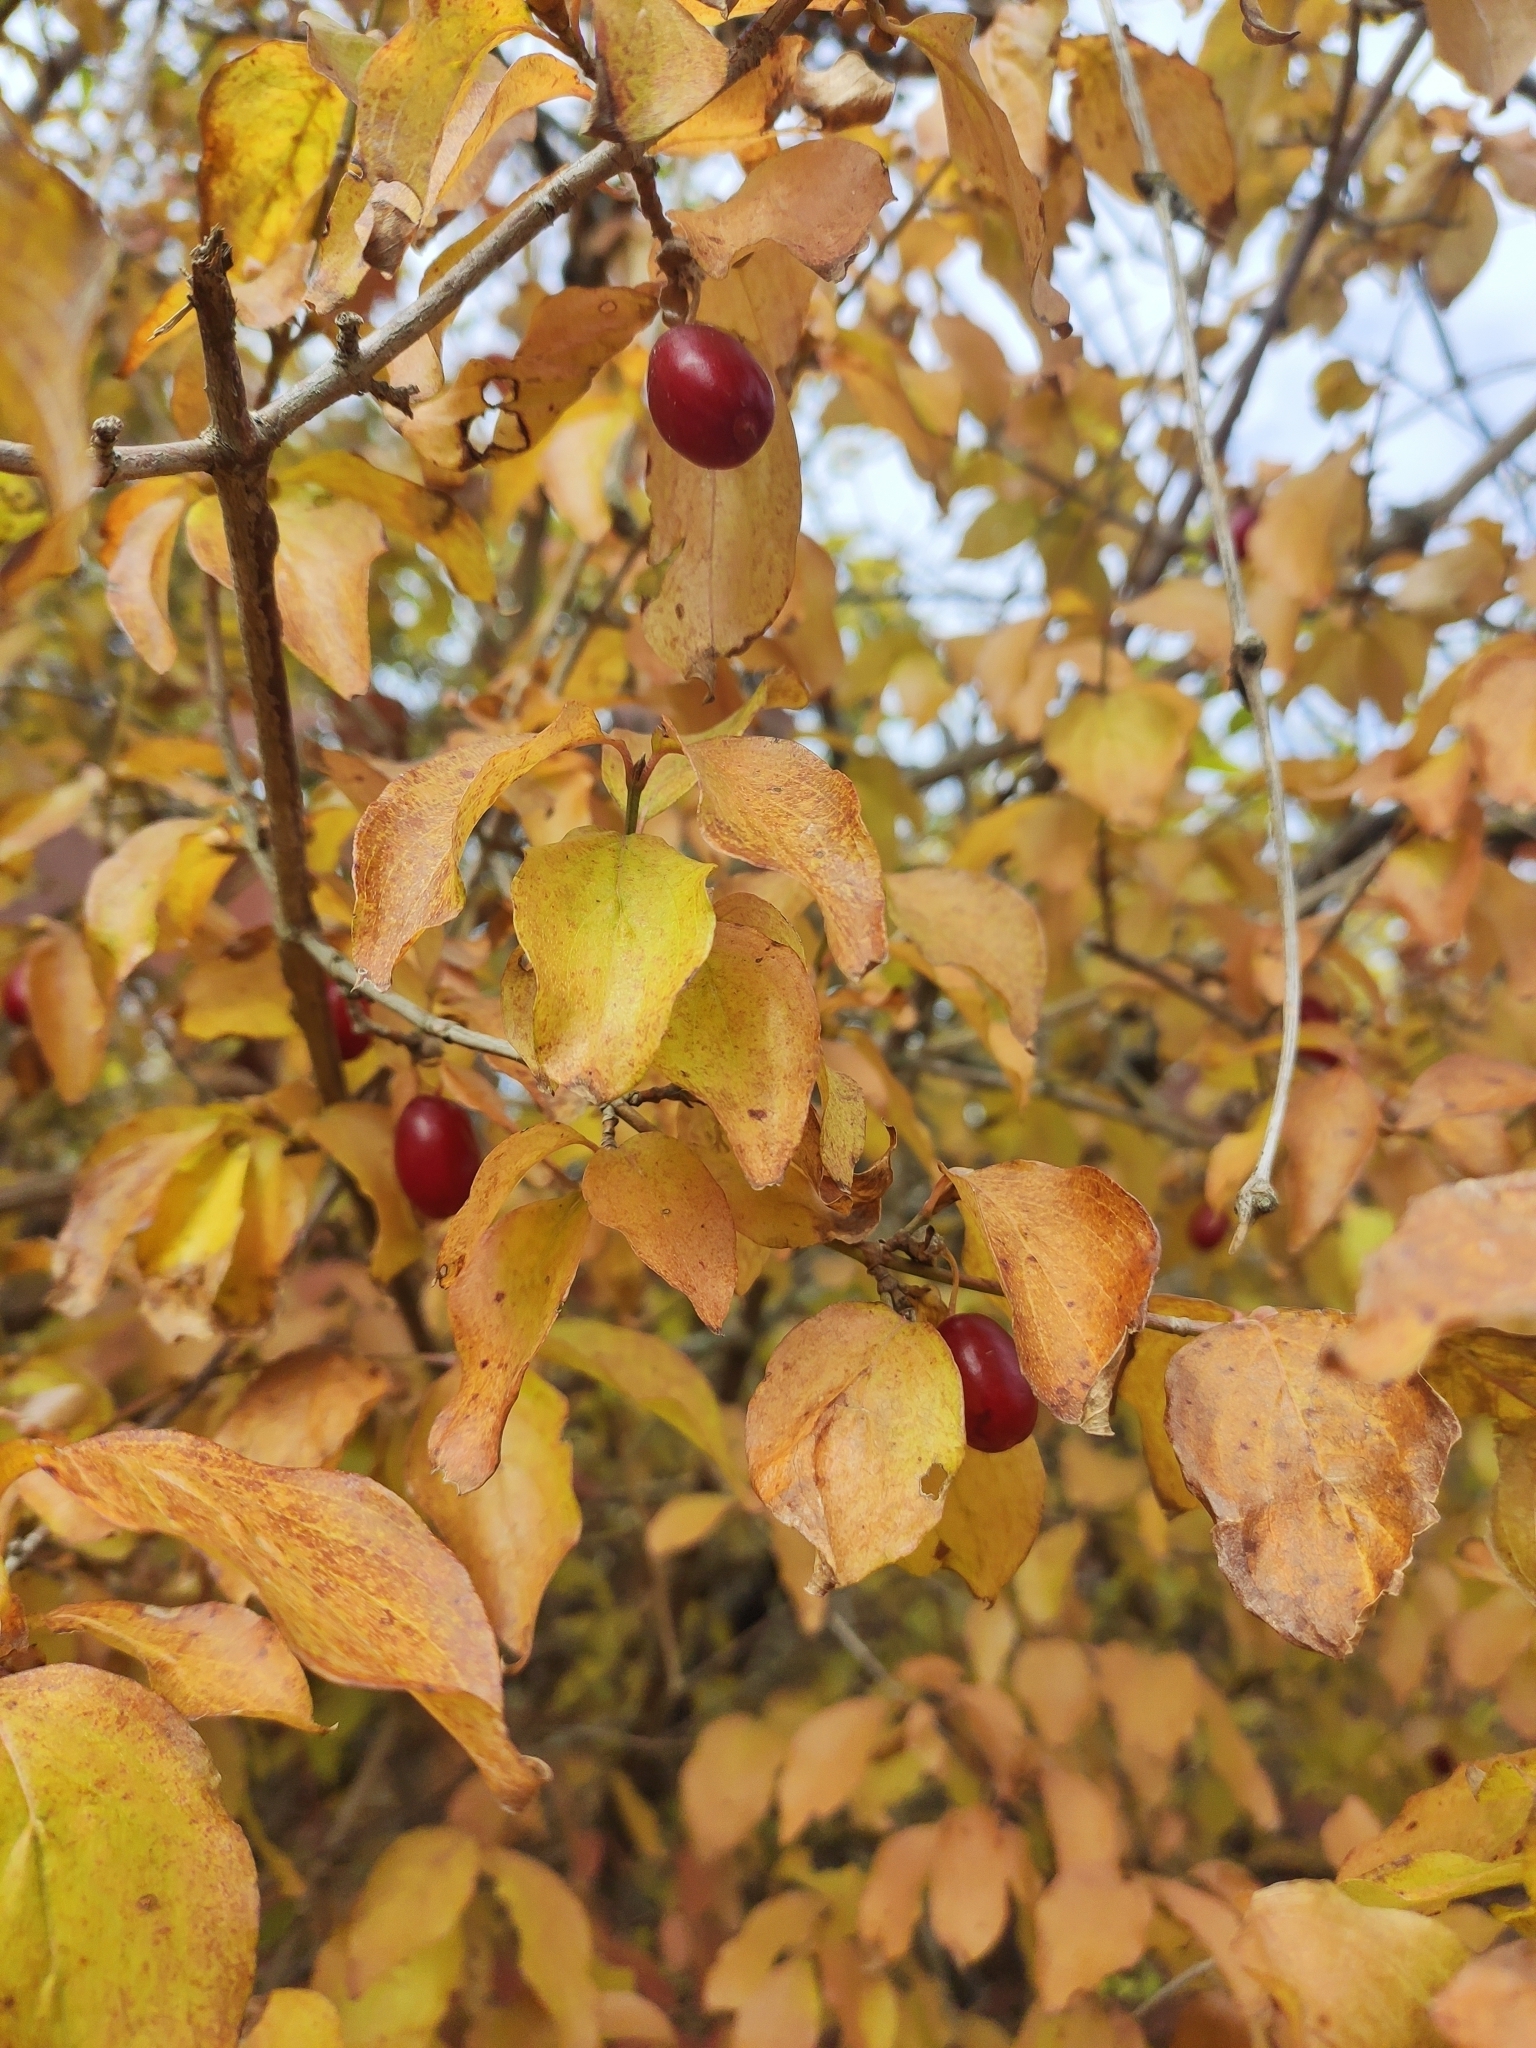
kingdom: Plantae
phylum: Tracheophyta
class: Magnoliopsida
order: Cornales
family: Cornaceae
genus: Cornus
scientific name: Cornus mas
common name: Cornelian-cherry
